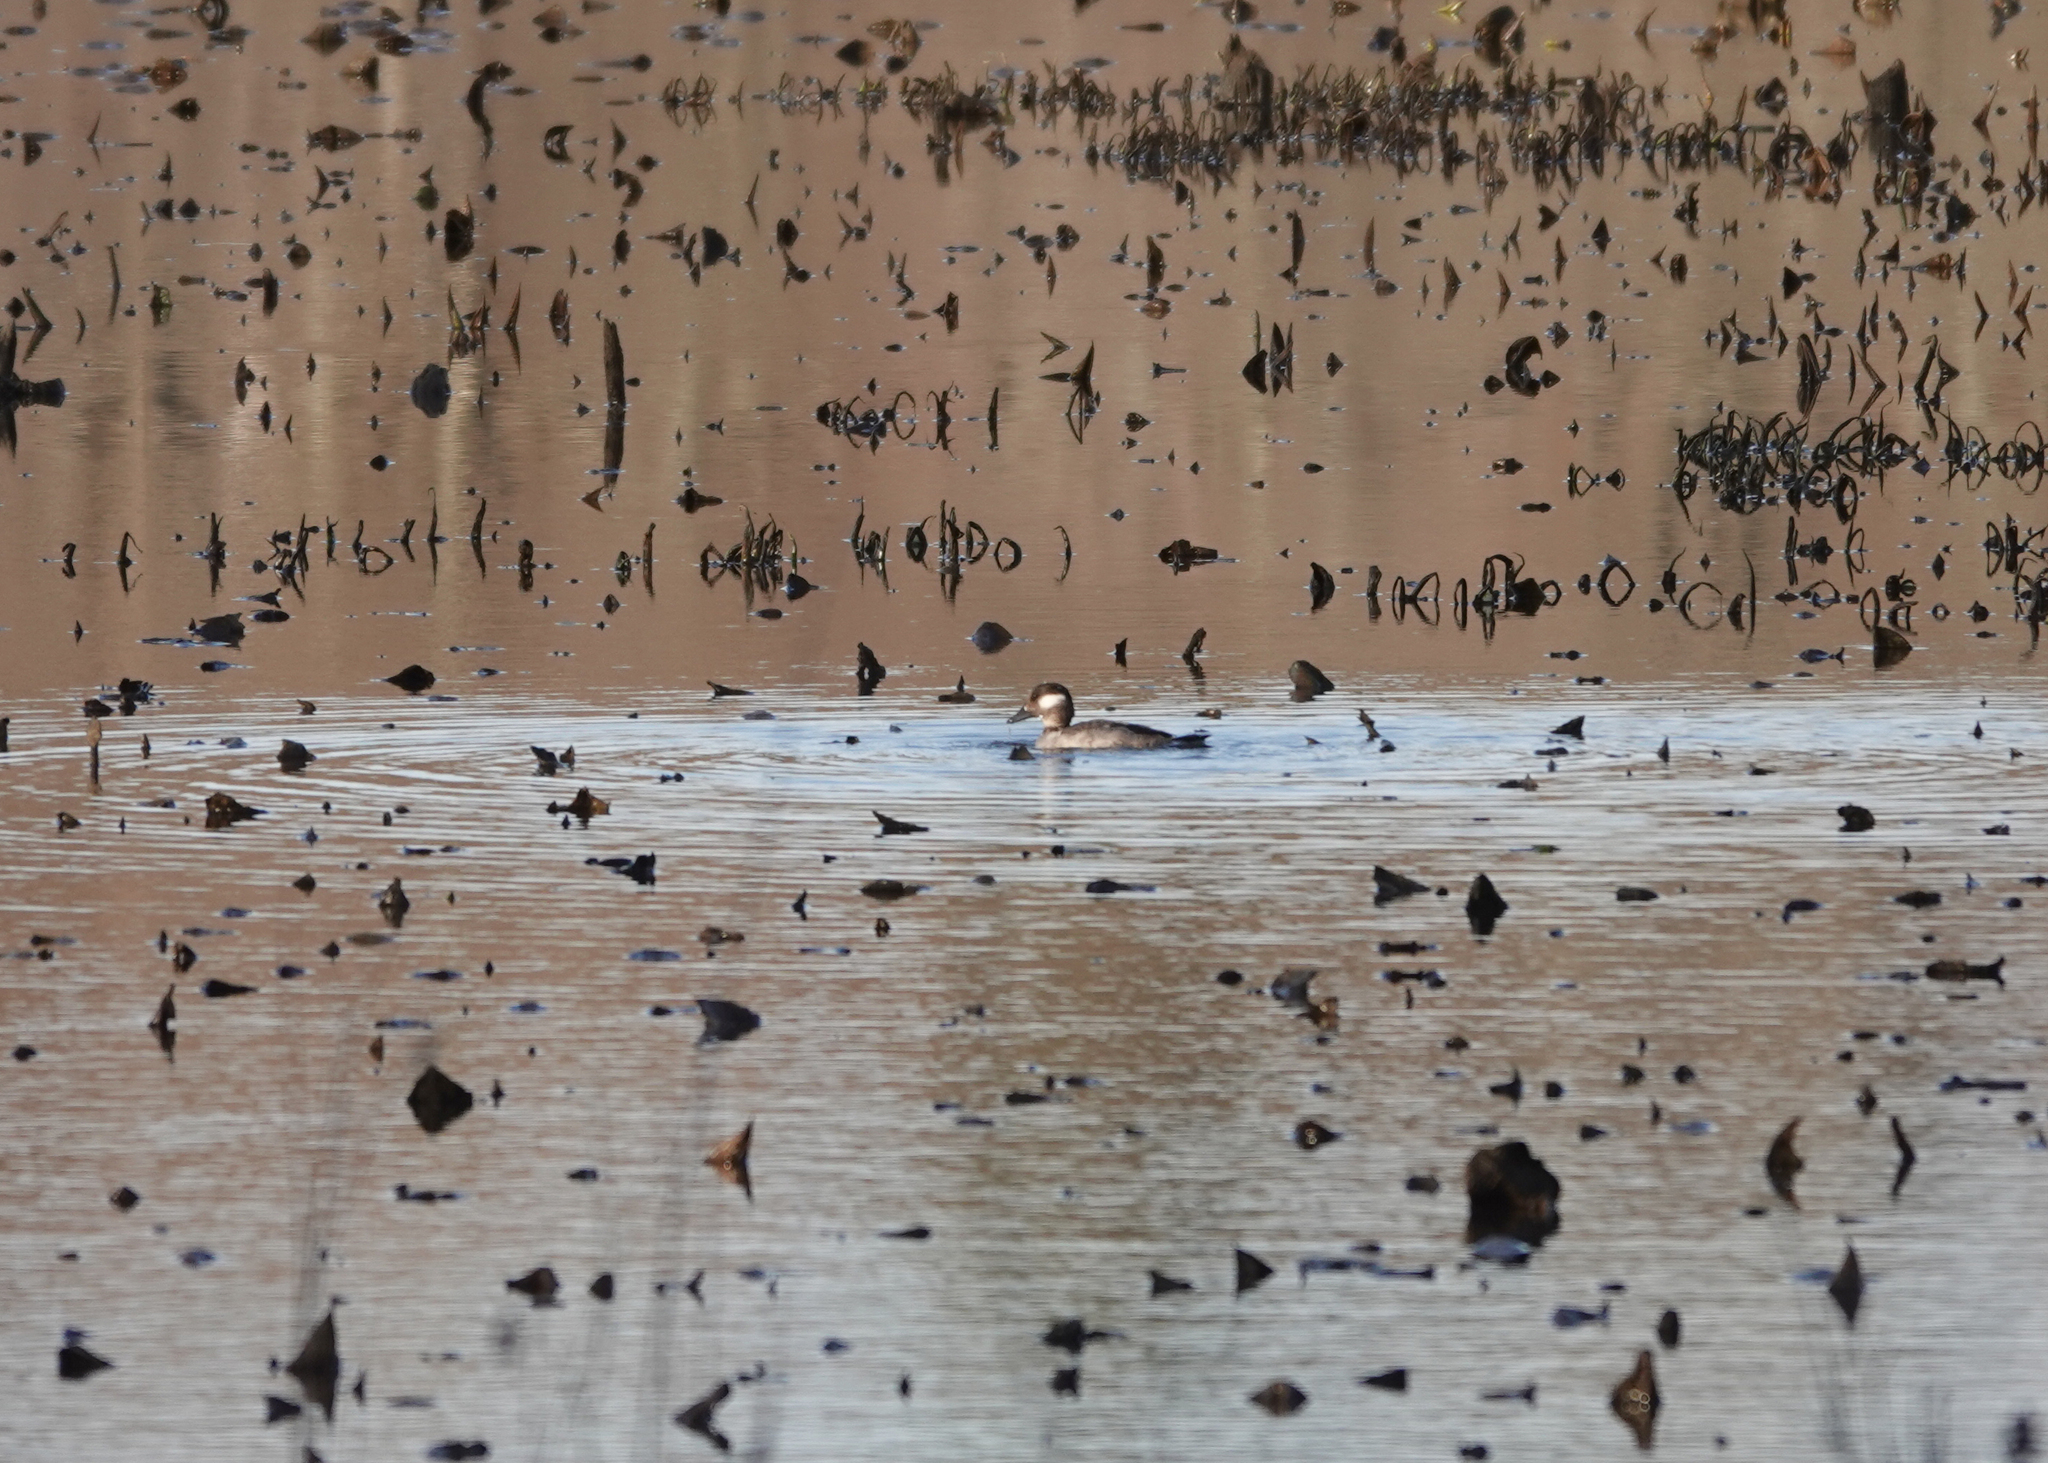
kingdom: Animalia
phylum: Chordata
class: Aves
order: Anseriformes
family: Anatidae
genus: Bucephala
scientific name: Bucephala albeola
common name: Bufflehead
